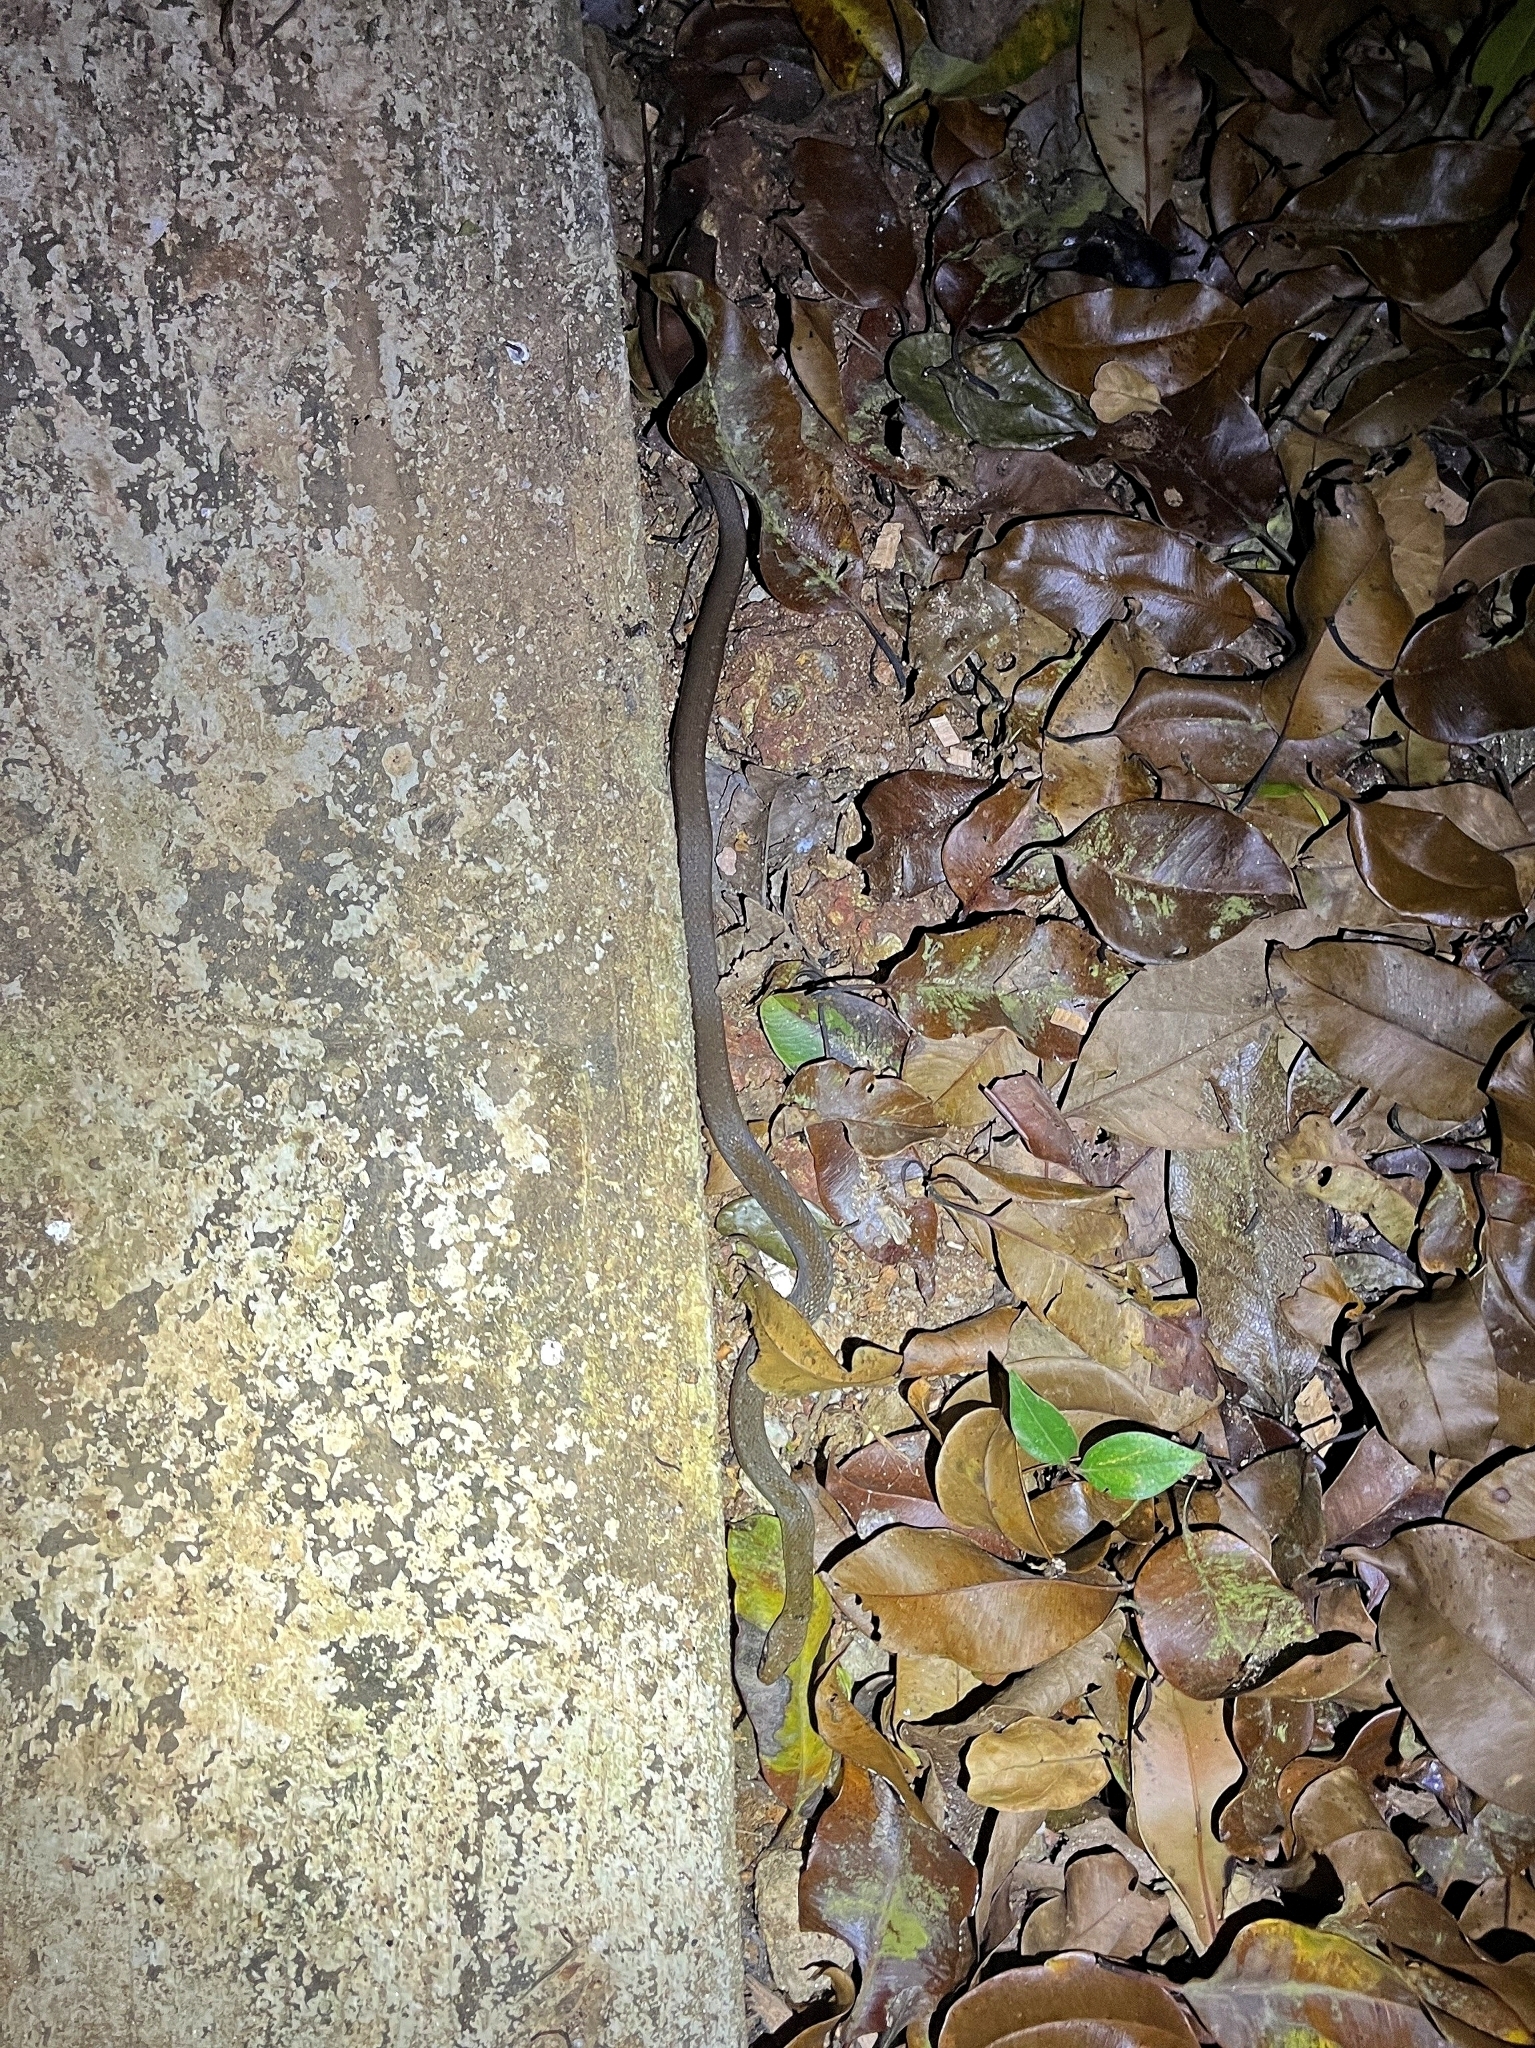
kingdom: Animalia
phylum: Chordata
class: Squamata
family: Colubridae
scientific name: Colubridae
